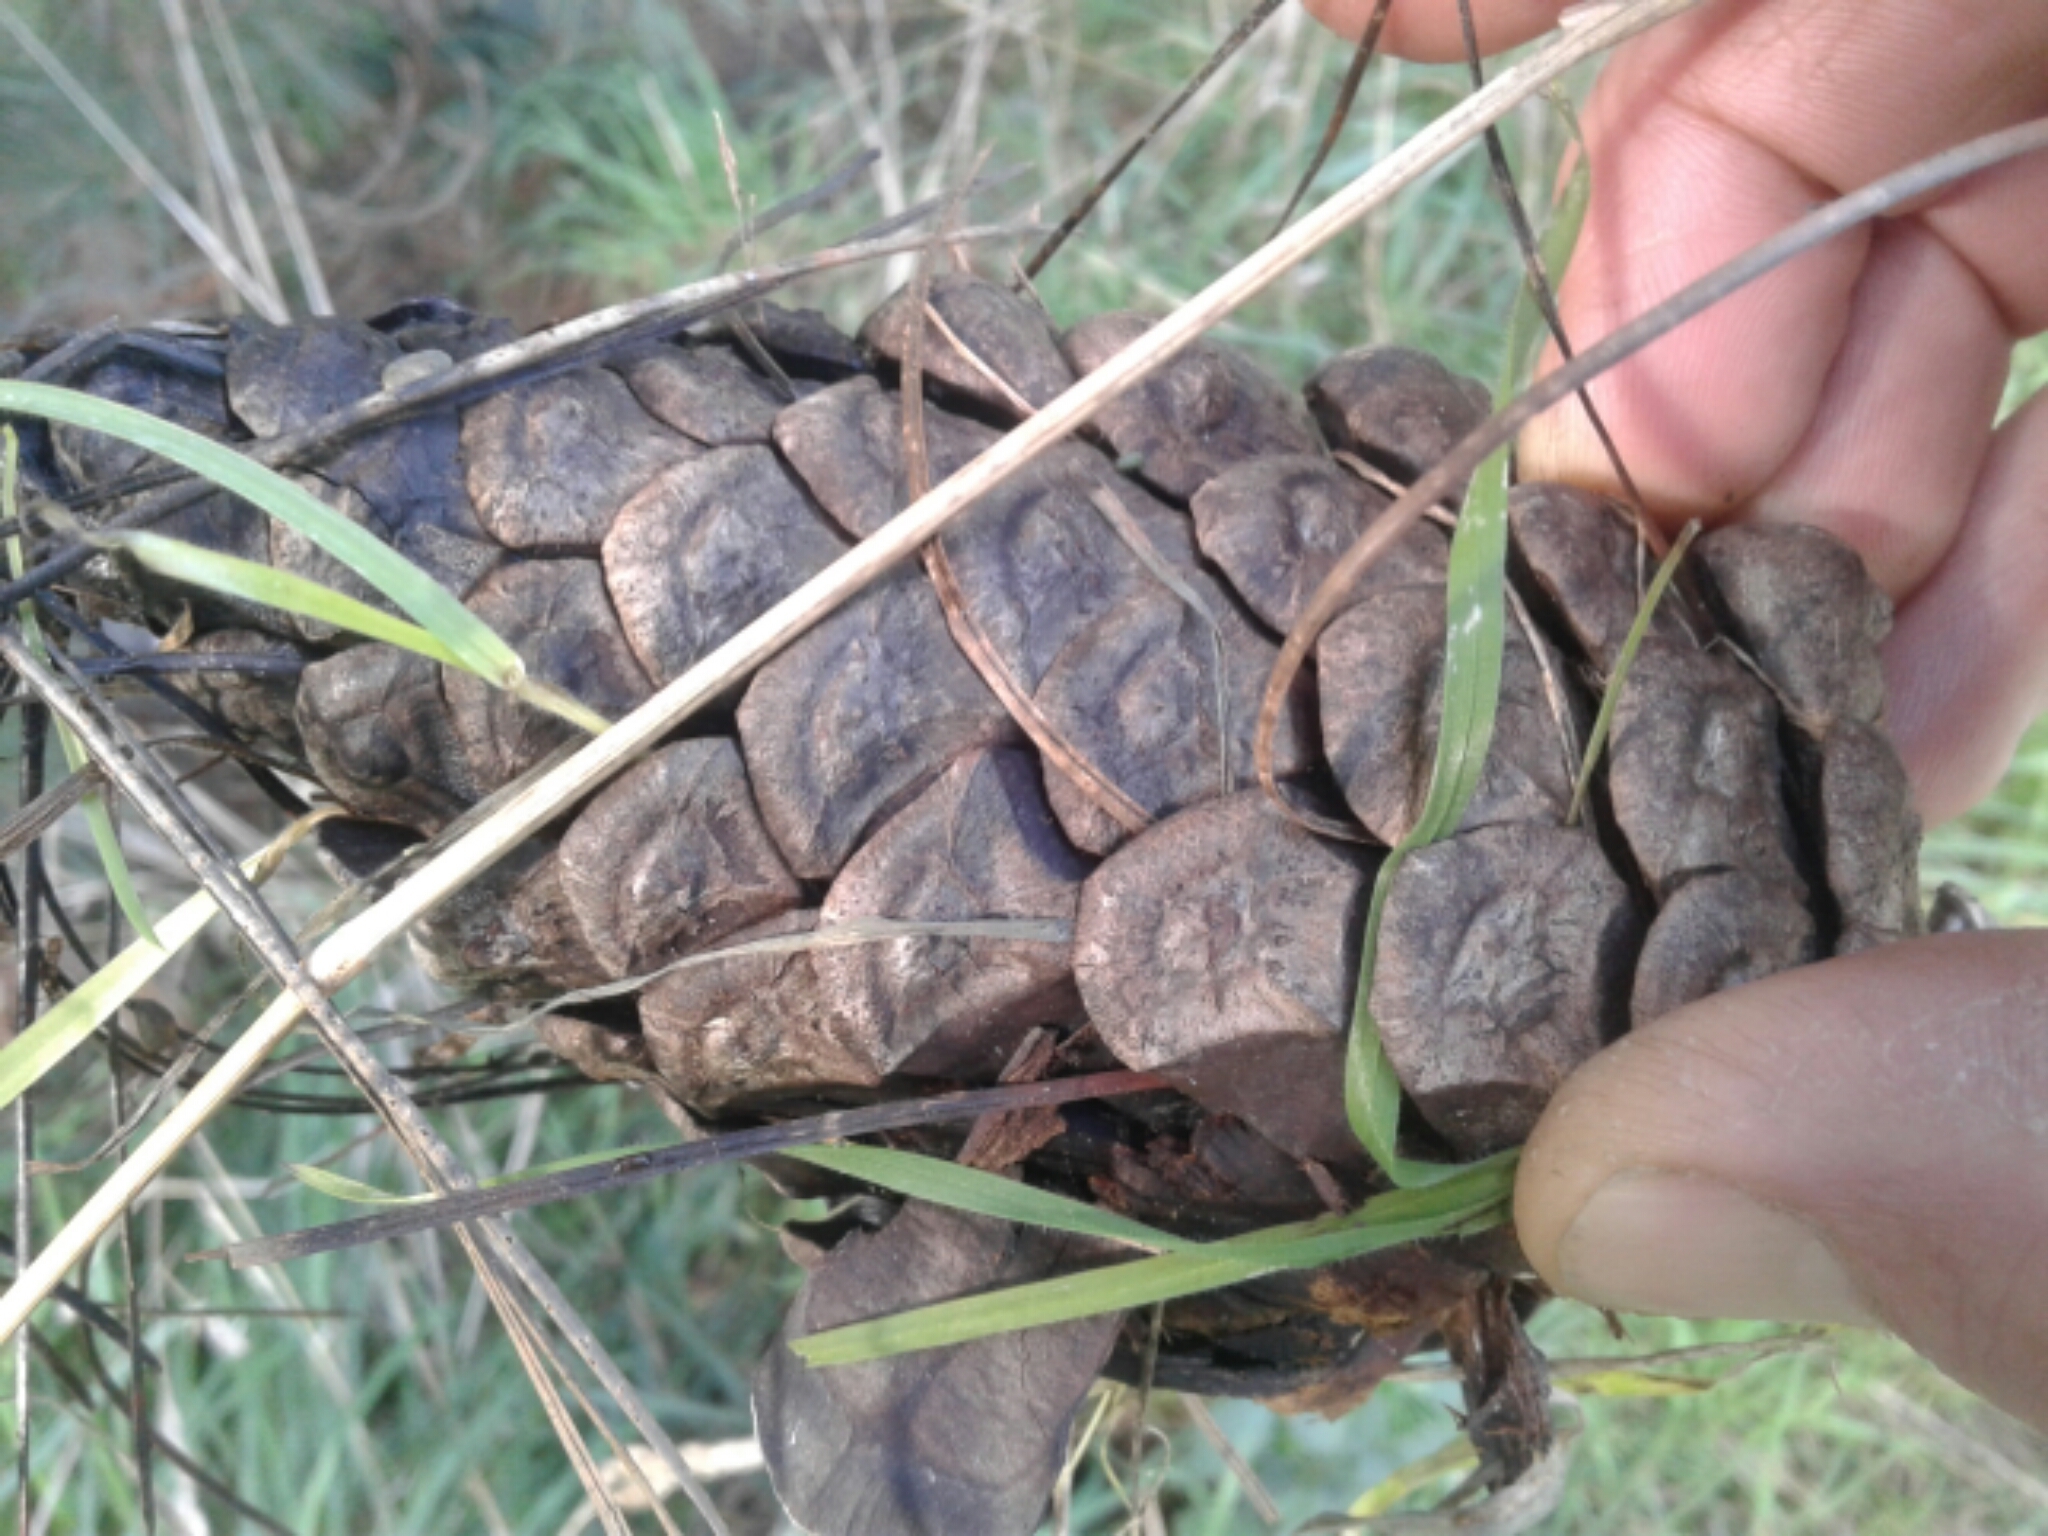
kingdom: Plantae
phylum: Tracheophyta
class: Pinopsida
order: Pinales
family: Pinaceae
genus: Pinus
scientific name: Pinus radiata
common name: Monterey pine
